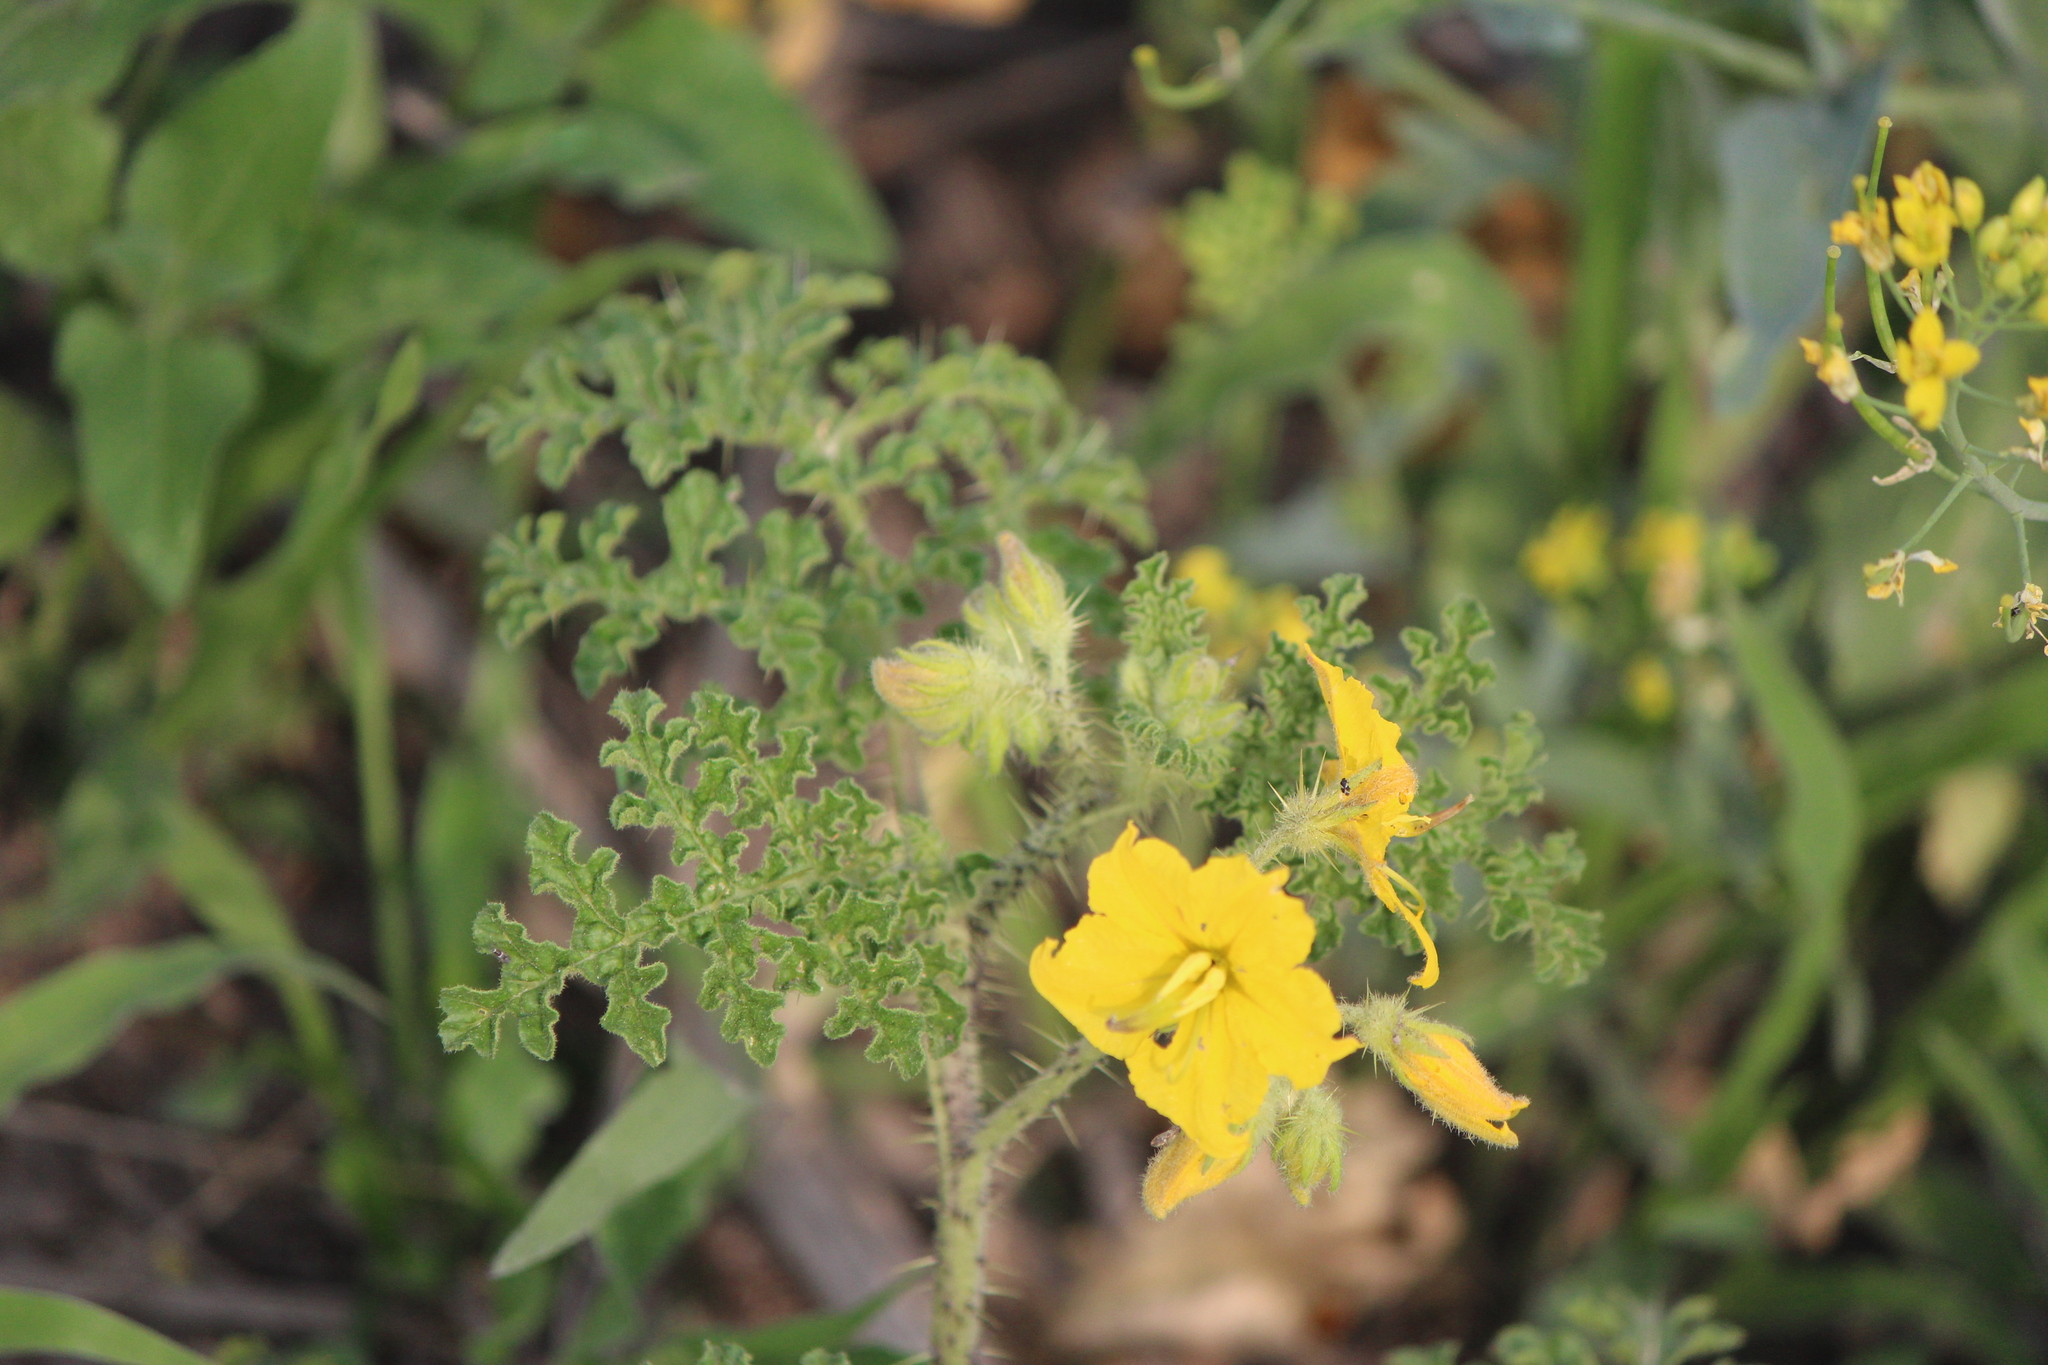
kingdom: Plantae
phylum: Tracheophyta
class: Magnoliopsida
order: Solanales
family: Solanaceae
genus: Solanum
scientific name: Solanum angustifolium
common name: Buffalobur nightshade
